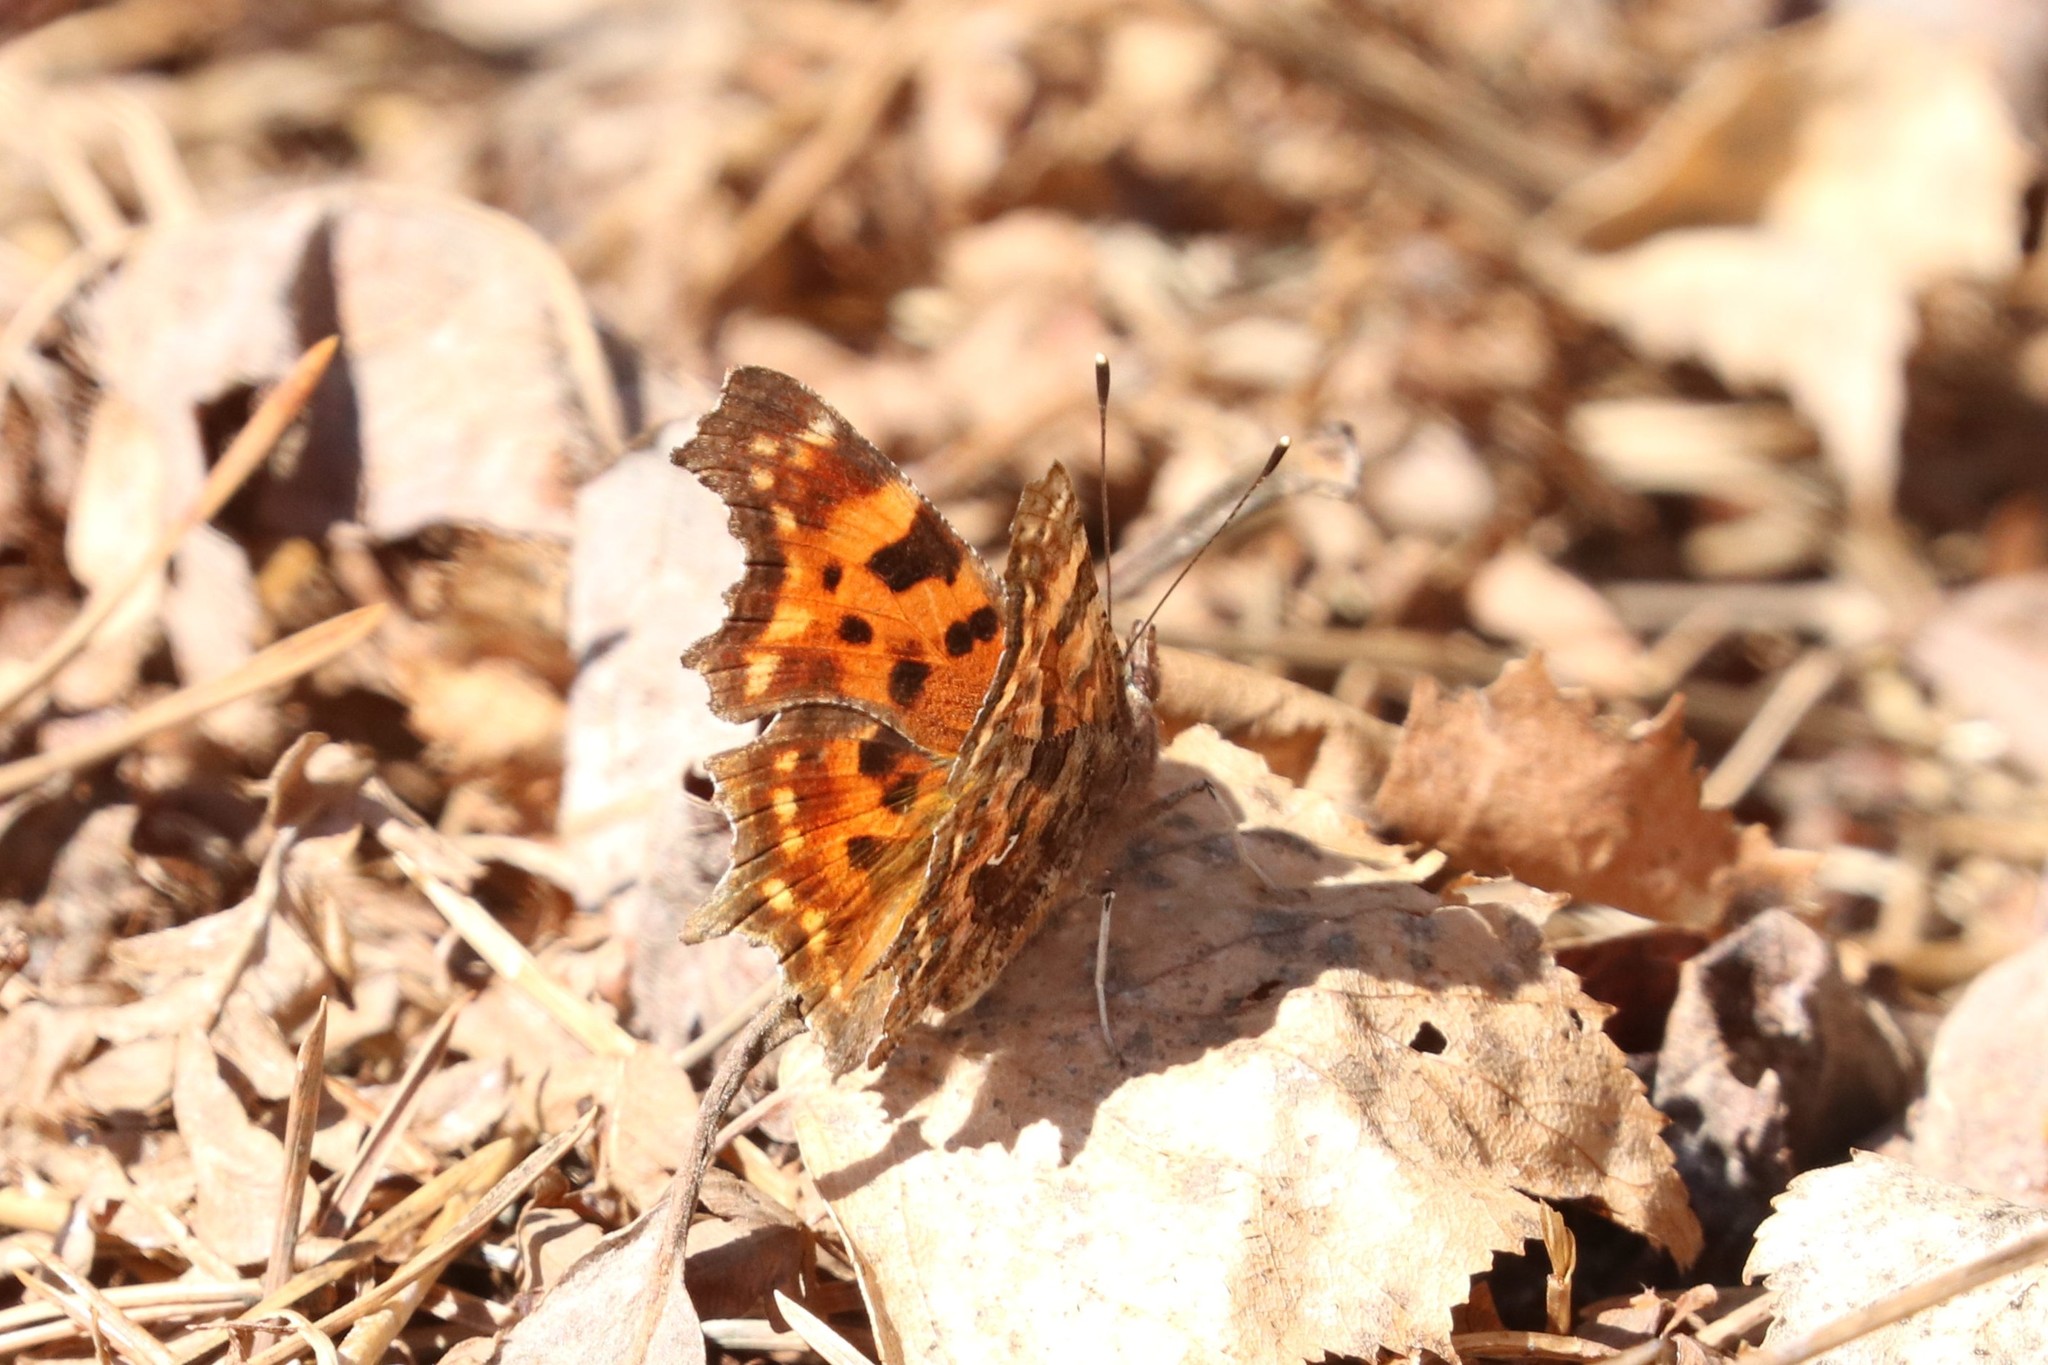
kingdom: Animalia
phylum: Arthropoda
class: Insecta
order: Lepidoptera
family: Nymphalidae
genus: Polygonia
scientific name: Polygonia c-album
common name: Comma
